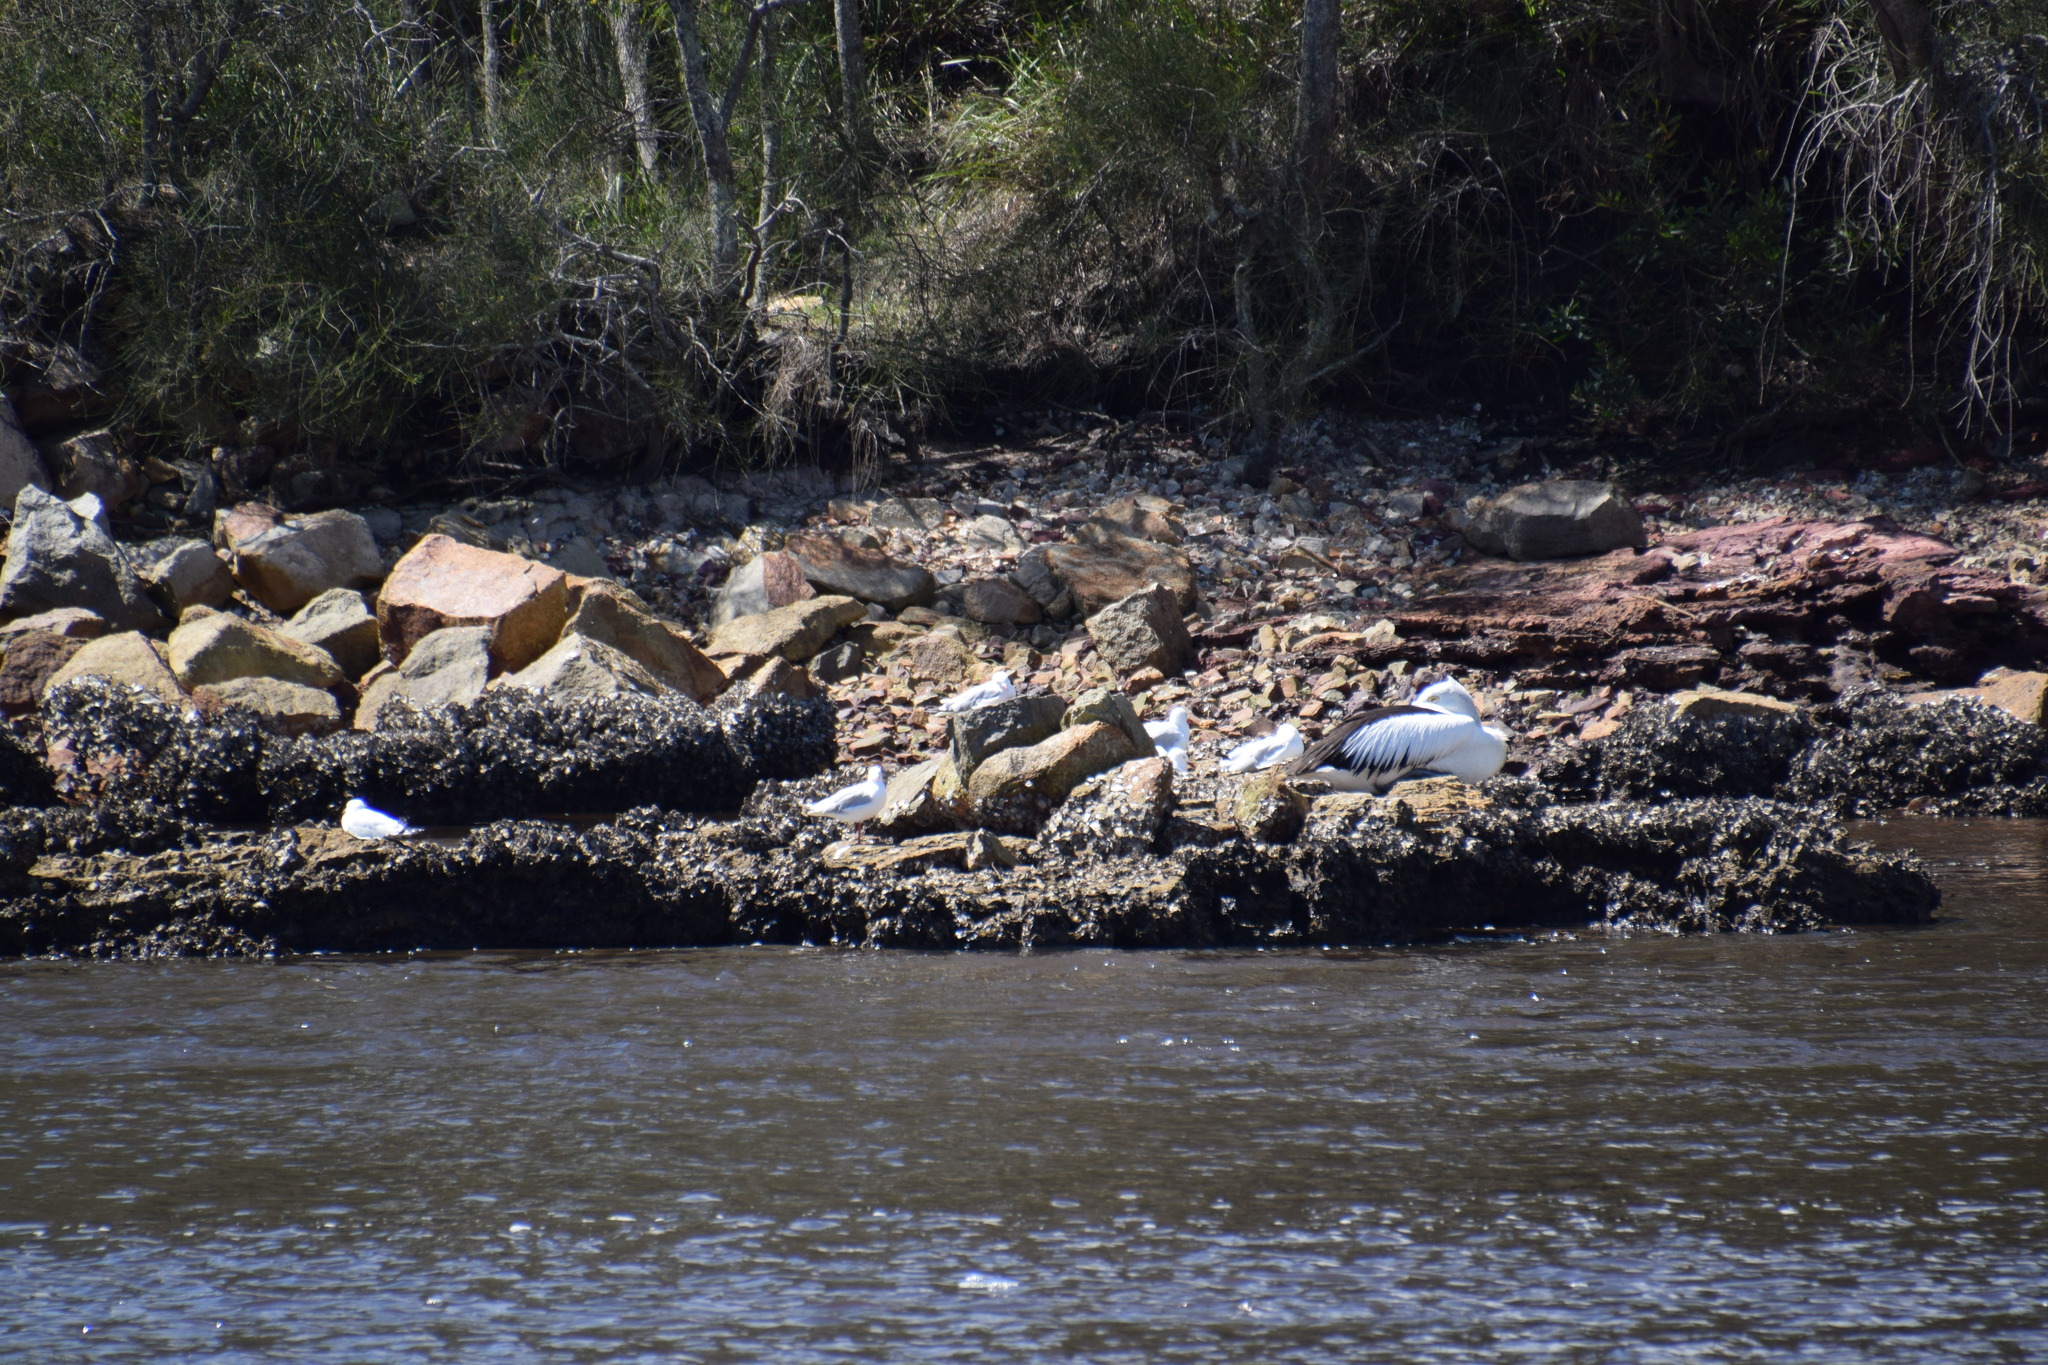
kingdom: Animalia
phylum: Chordata
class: Aves
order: Charadriiformes
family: Laridae
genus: Chroicocephalus
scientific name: Chroicocephalus novaehollandiae
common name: Silver gull
